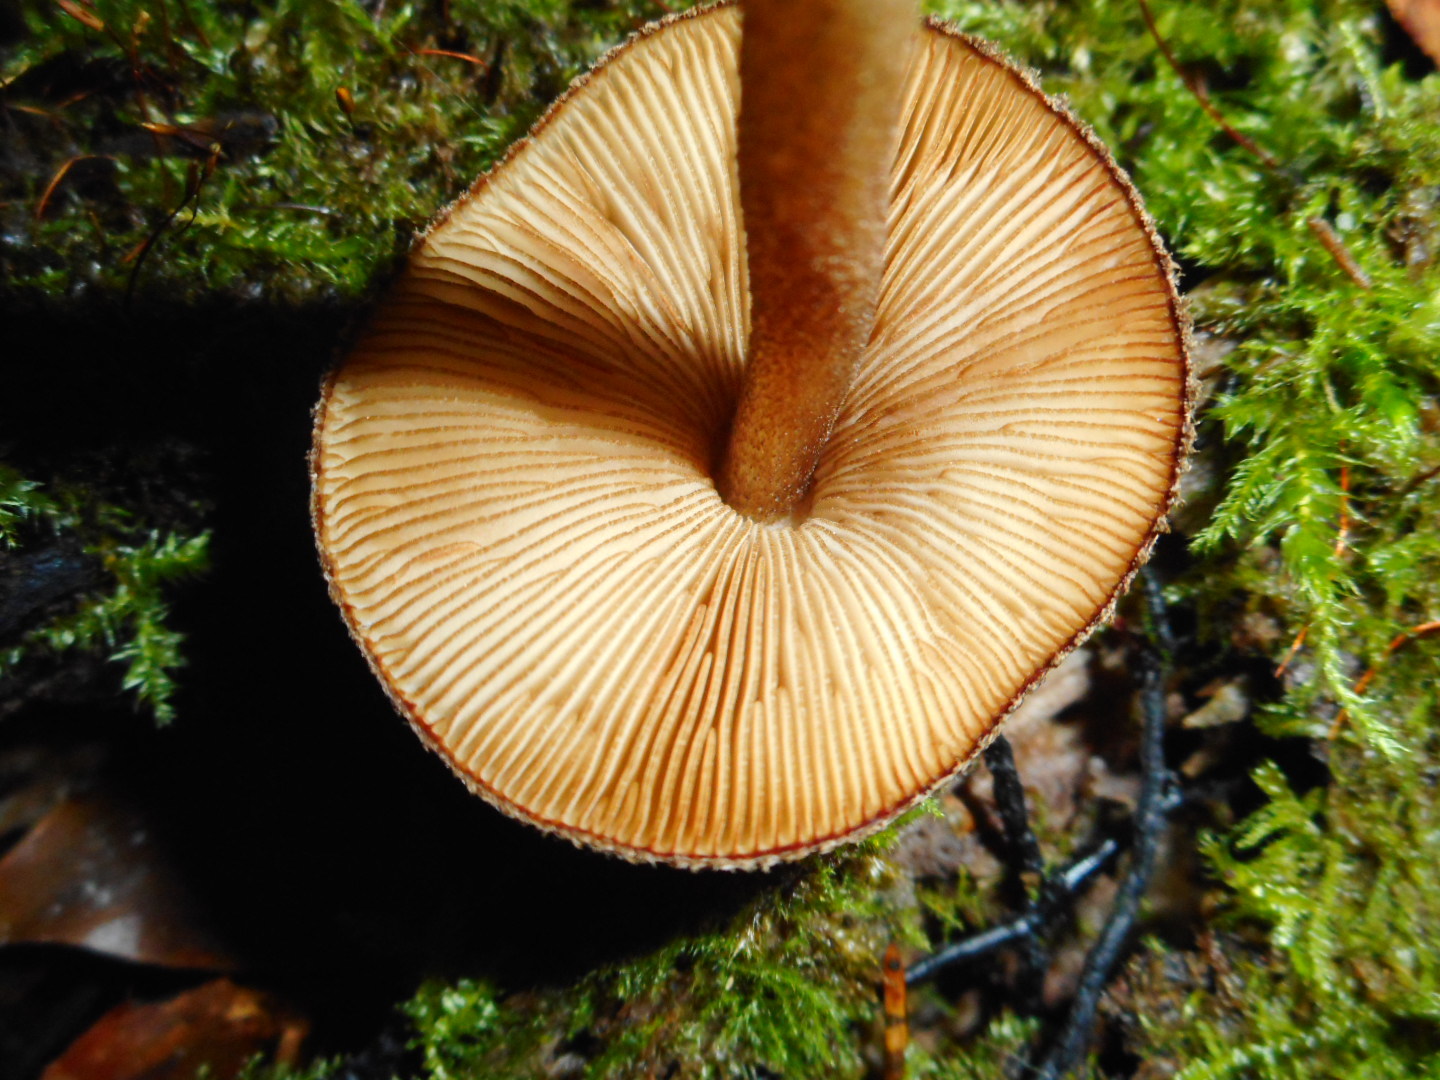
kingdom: Fungi
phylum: Basidiomycota
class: Agaricomycetes
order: Agaricales
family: Pluteaceae
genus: Pluteus
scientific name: Pluteus umbrosus
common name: Velvet shield
